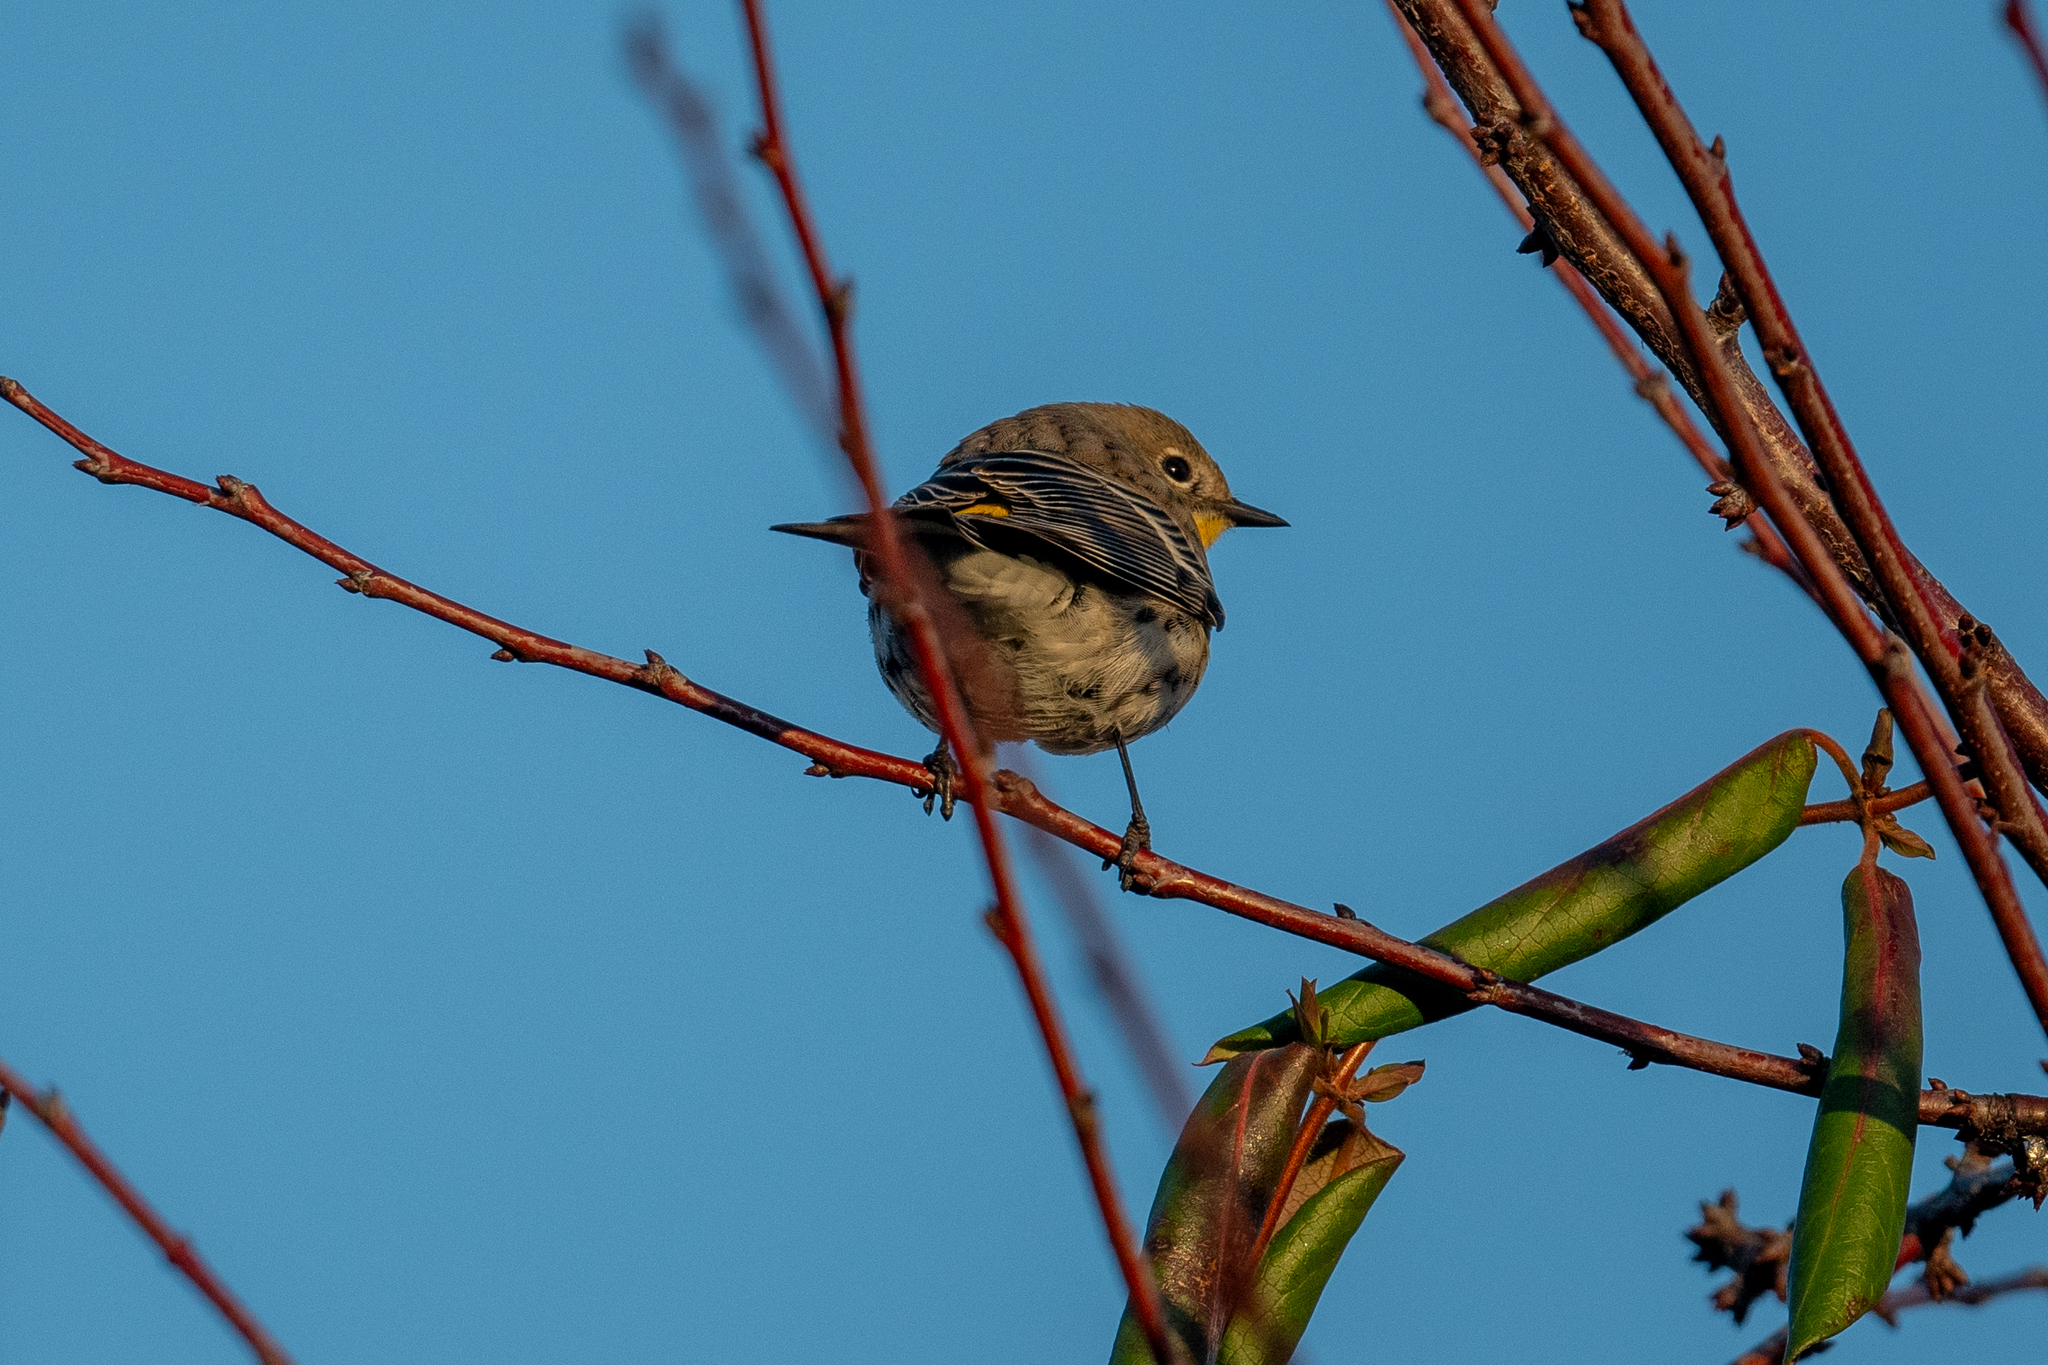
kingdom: Animalia
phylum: Chordata
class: Aves
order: Passeriformes
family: Parulidae
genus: Setophaga
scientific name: Setophaga coronata
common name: Myrtle warbler
